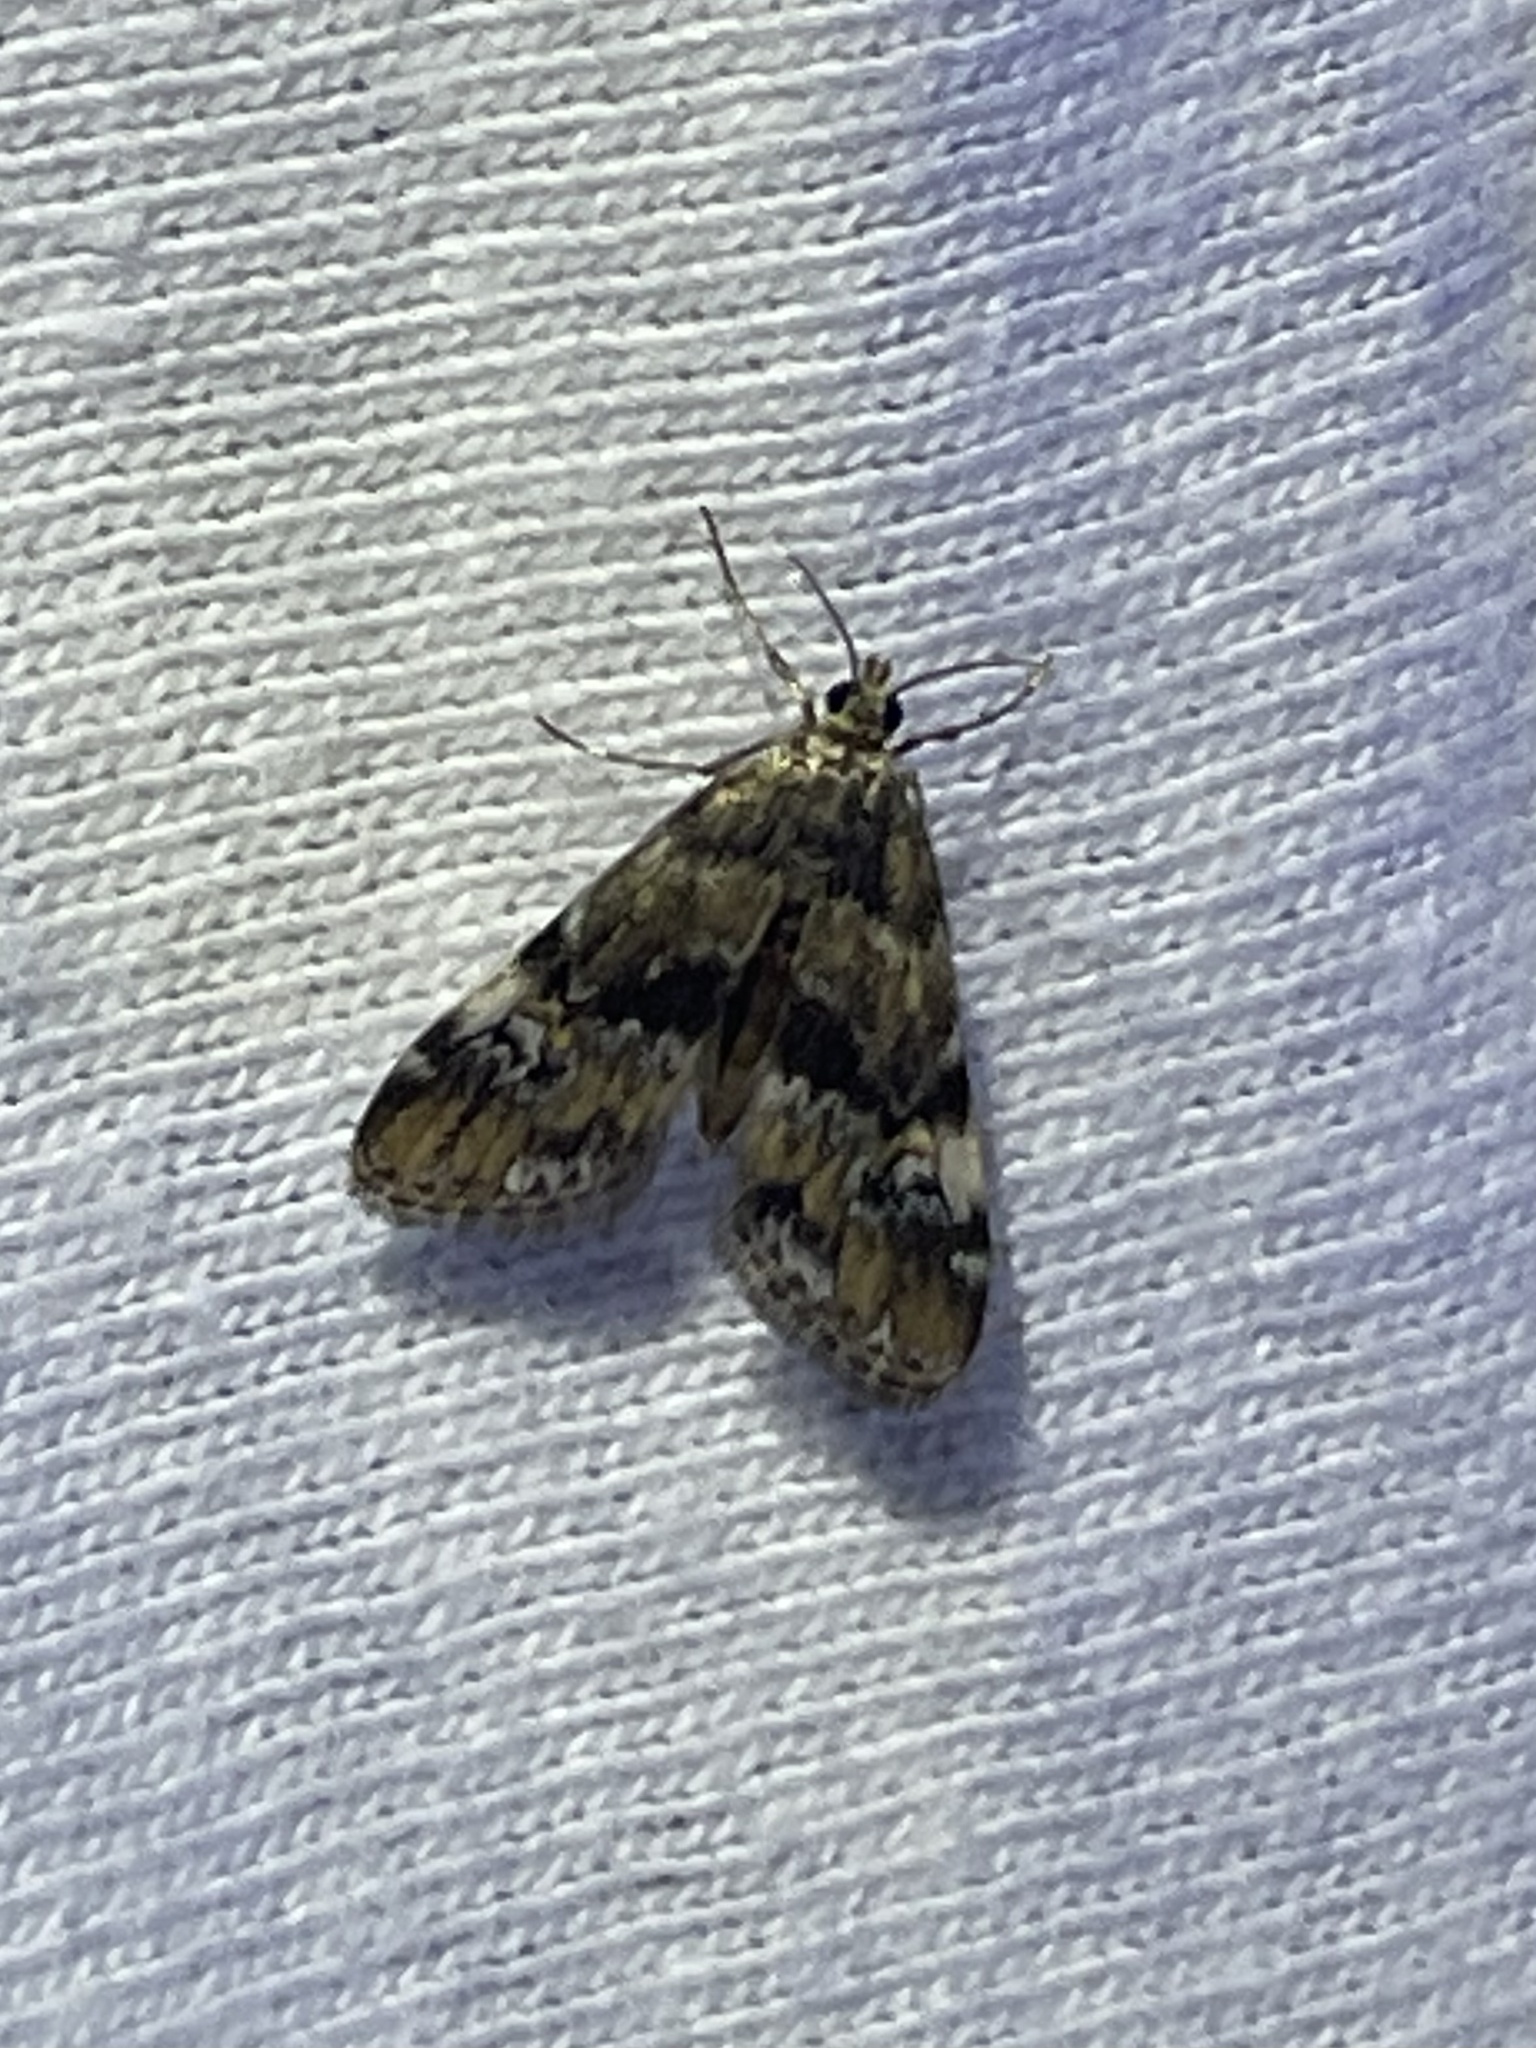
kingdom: Animalia
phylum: Arthropoda
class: Insecta
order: Lepidoptera
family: Crambidae
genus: Elophila
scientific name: Elophila obliteralis
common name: Waterlily leafcutter moth
